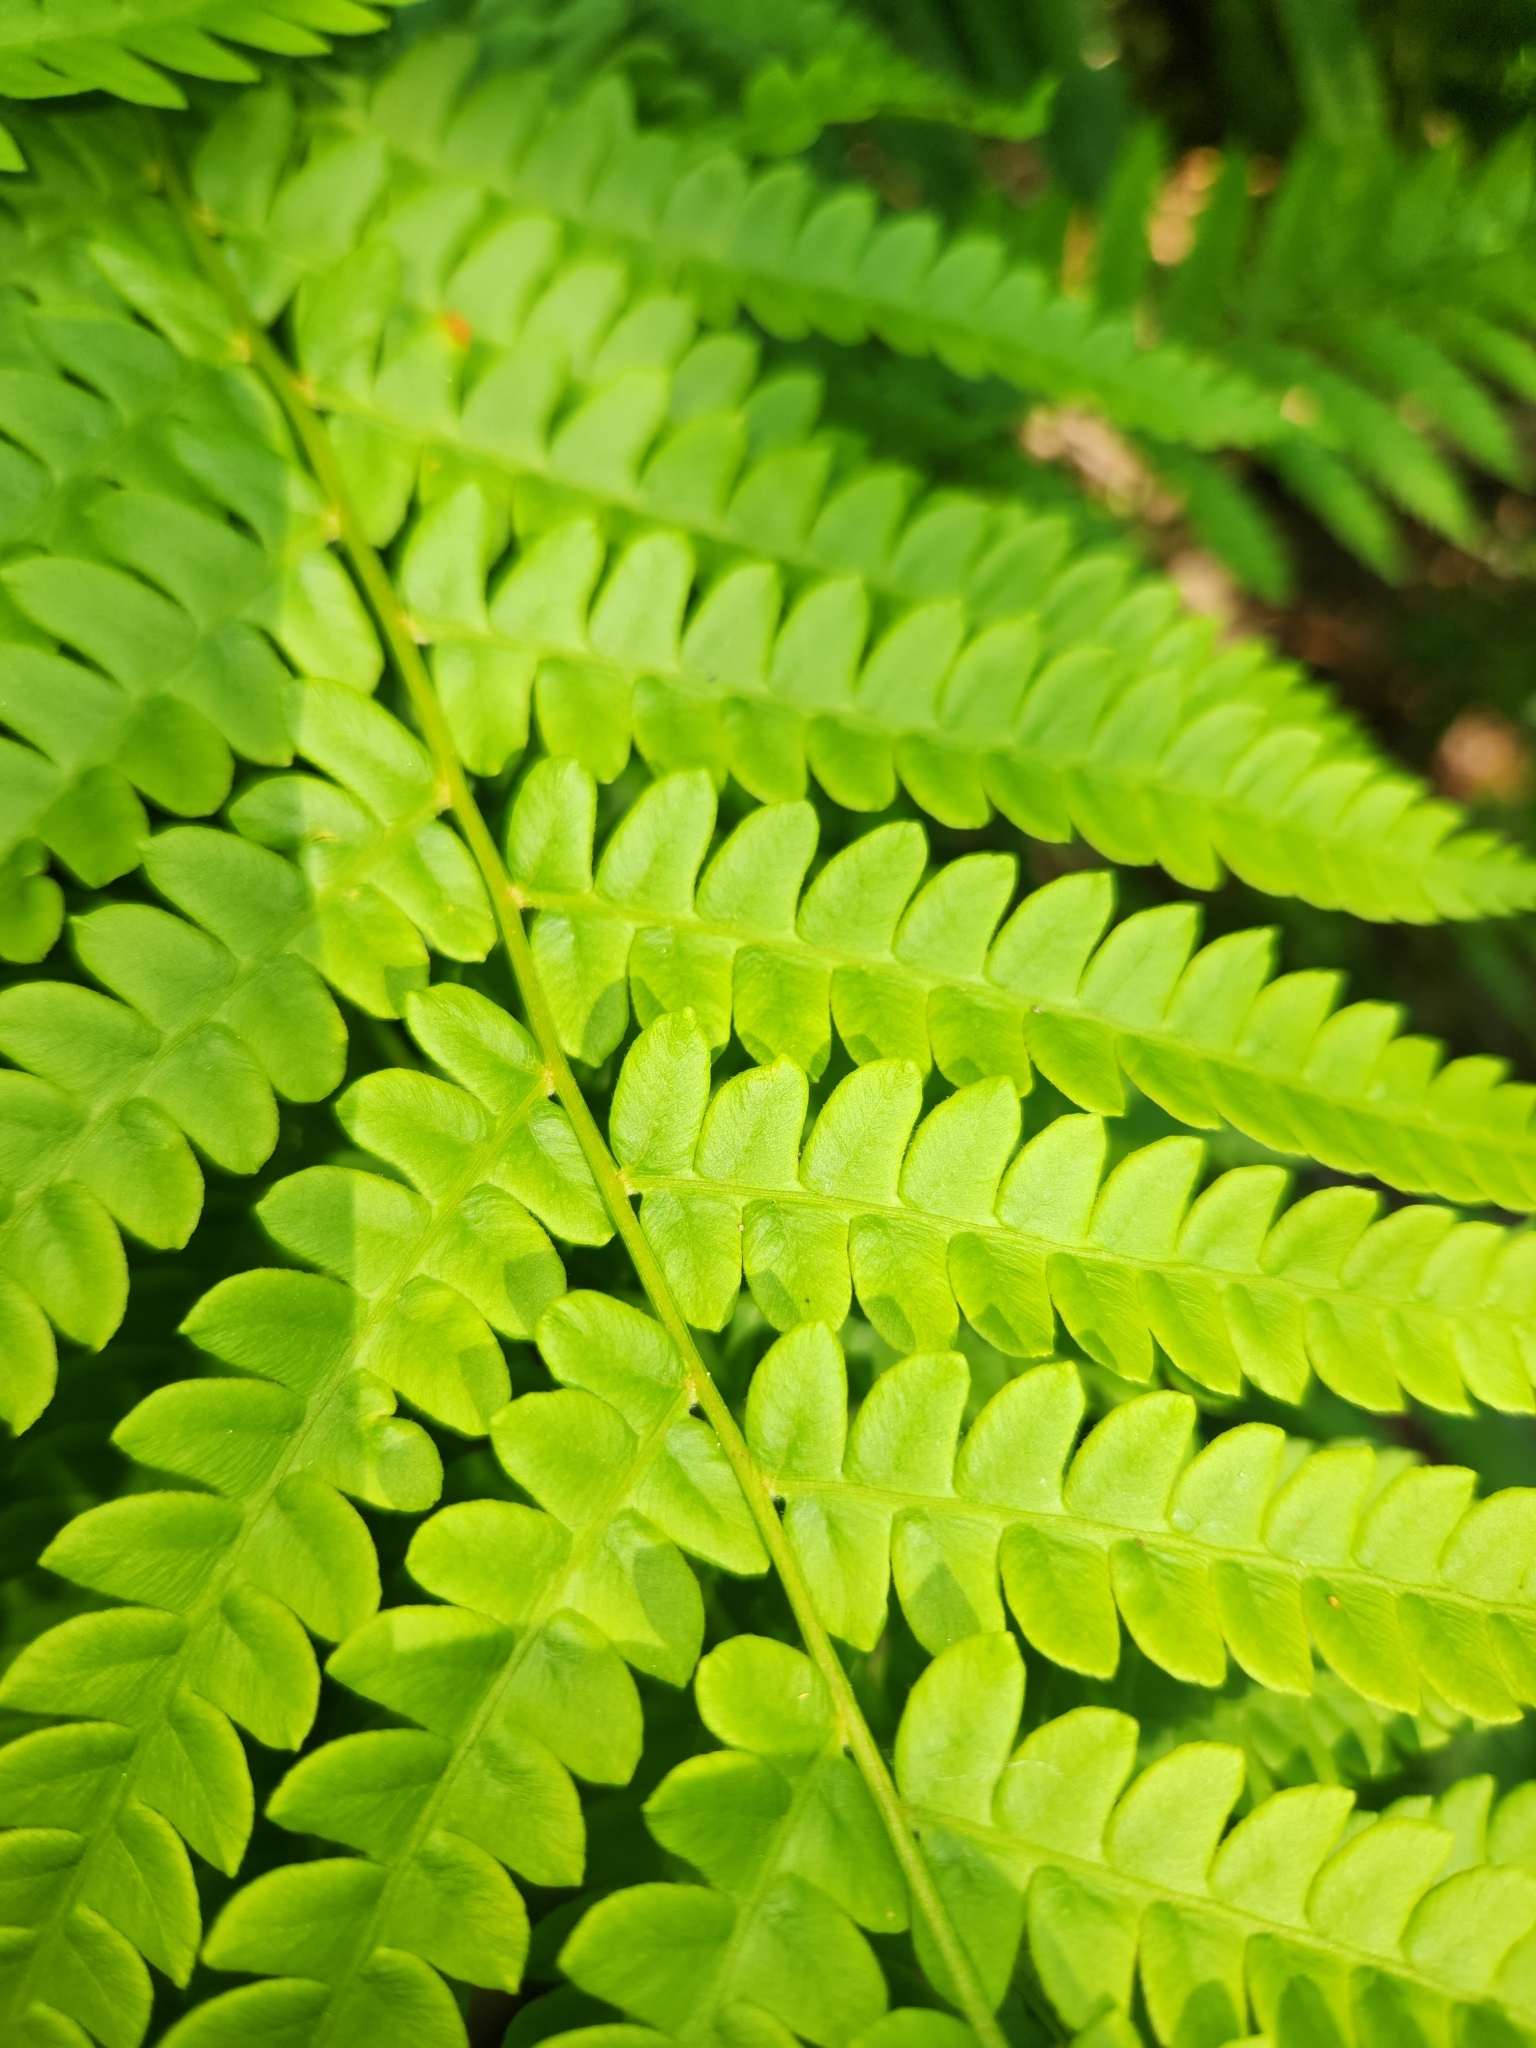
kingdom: Plantae
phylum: Tracheophyta
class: Polypodiopsida
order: Osmundales
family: Osmundaceae
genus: Osmundastrum
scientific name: Osmundastrum cinnamomeum
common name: Cinnamon fern
